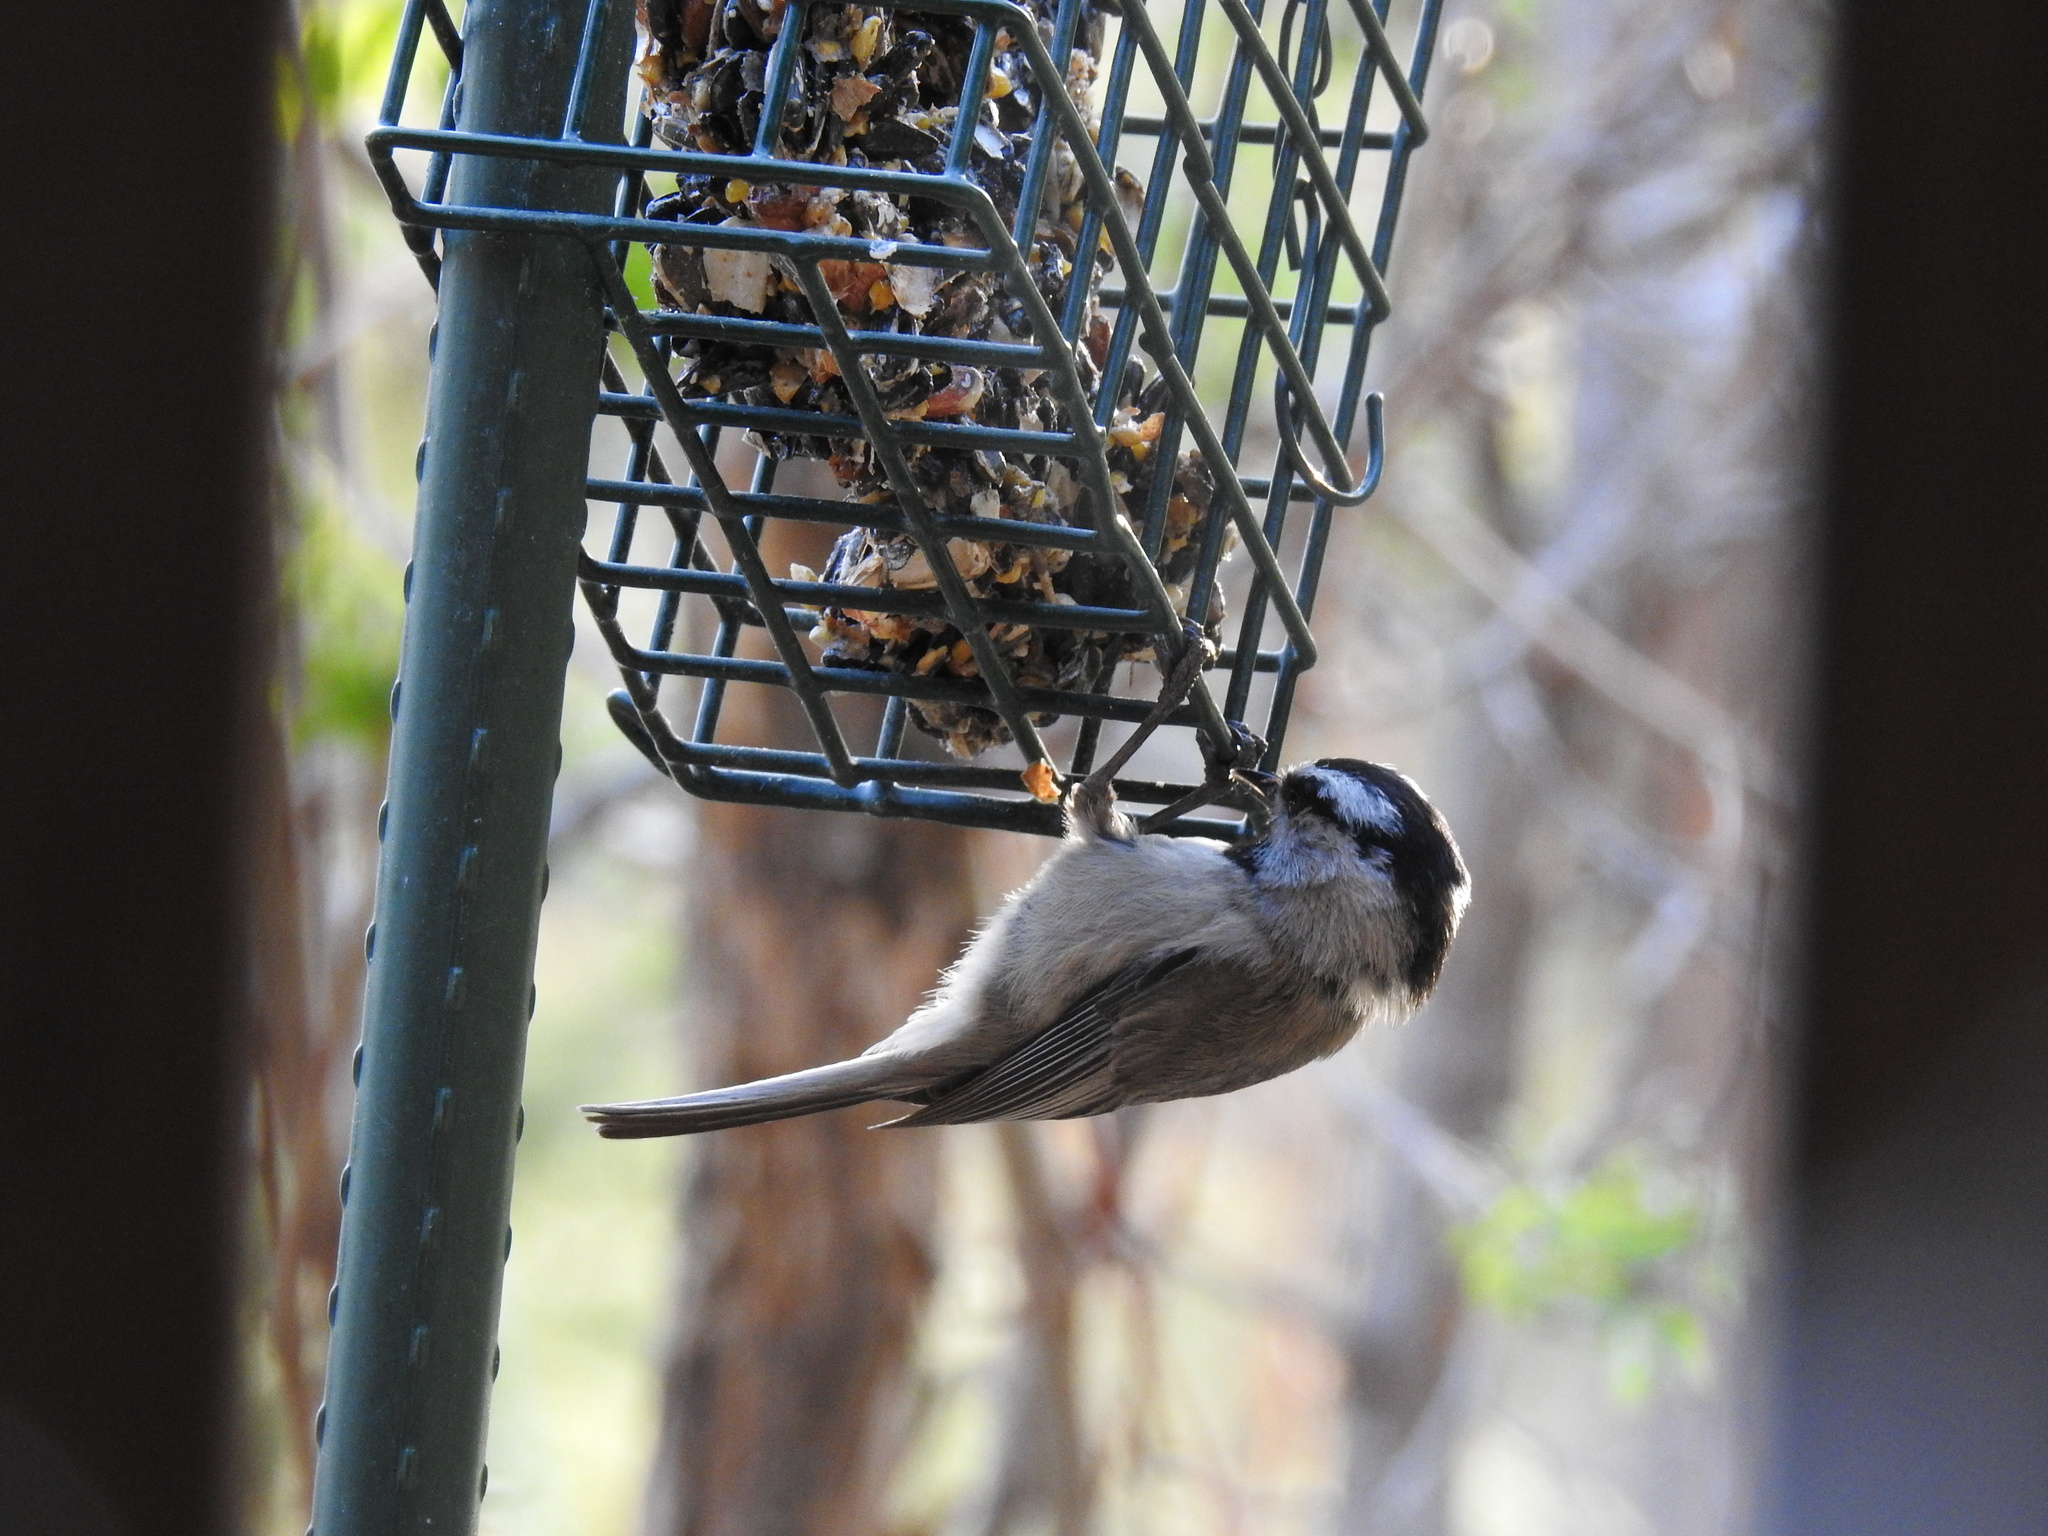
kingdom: Animalia
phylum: Chordata
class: Aves
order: Passeriformes
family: Paridae
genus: Poecile
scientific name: Poecile gambeli
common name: Mountain chickadee
